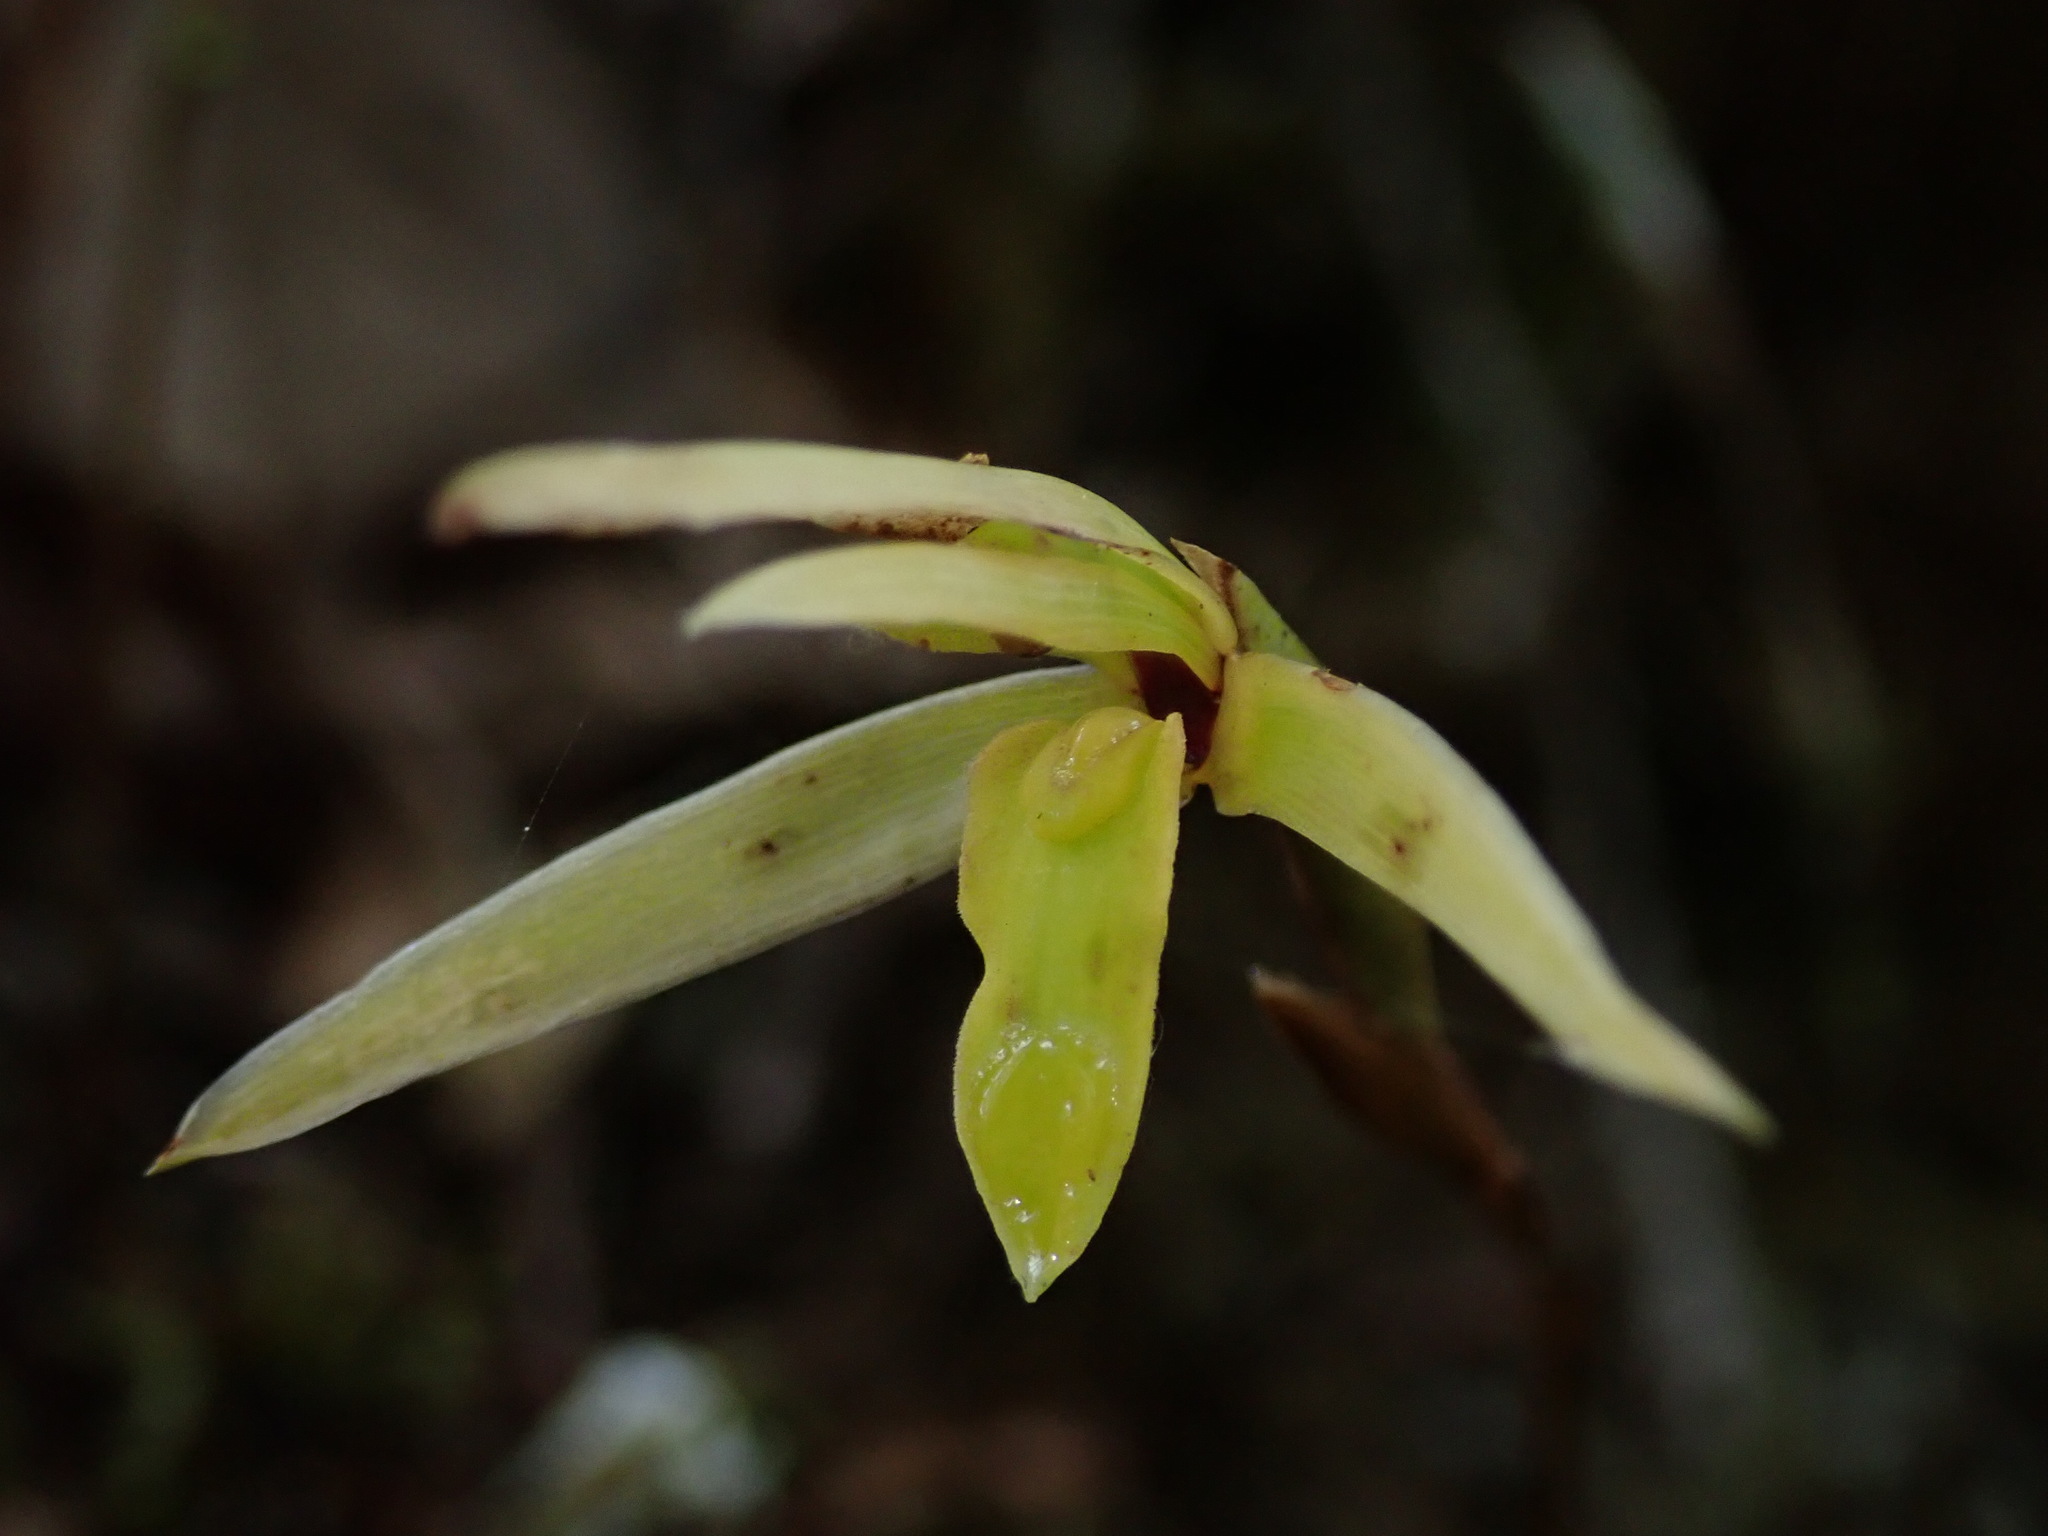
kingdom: Plantae
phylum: Tracheophyta
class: Liliopsida
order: Asparagales
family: Orchidaceae
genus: Maxillaria
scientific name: Maxillaria acuminata
